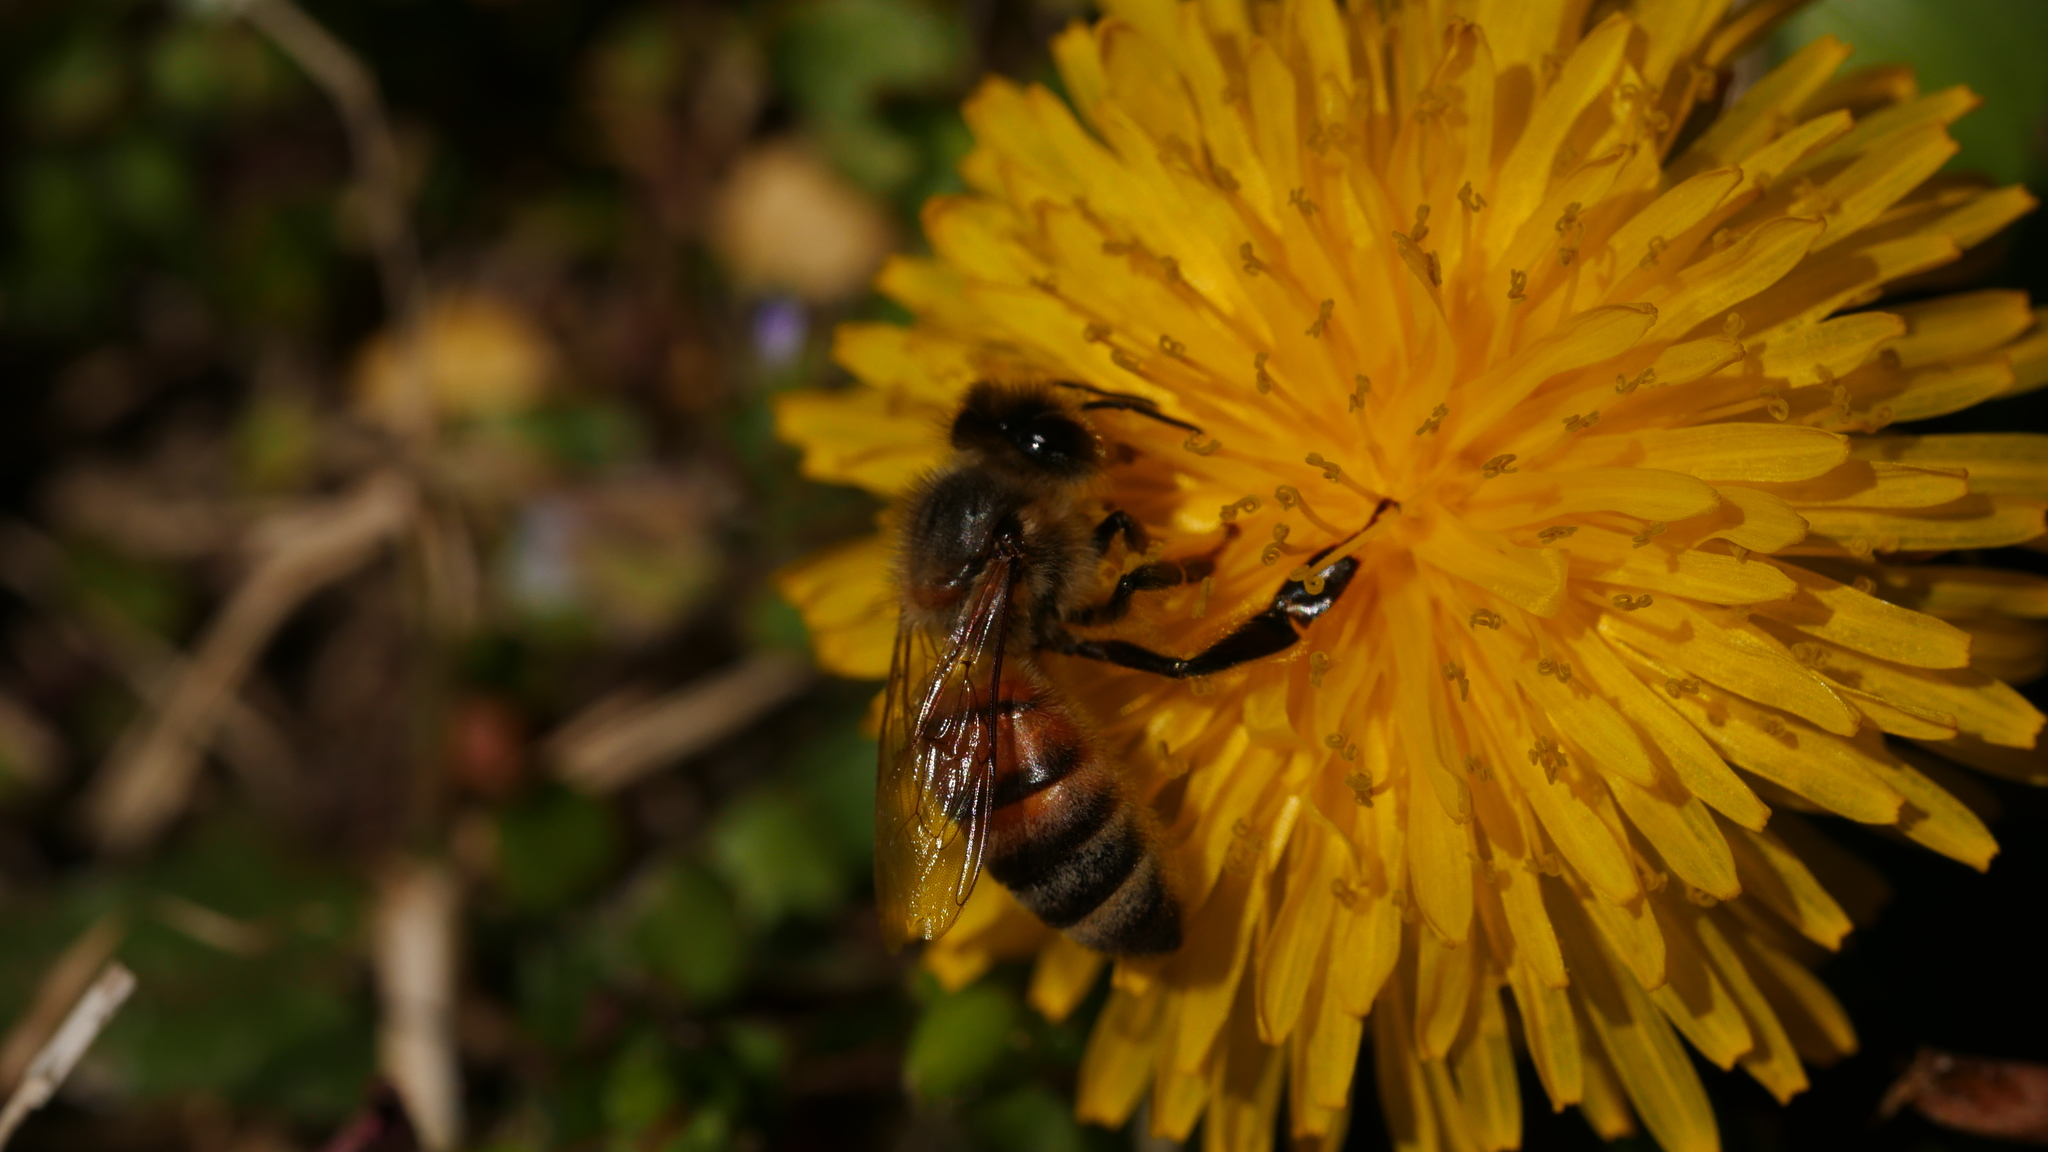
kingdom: Animalia
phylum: Arthropoda
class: Insecta
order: Hymenoptera
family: Apidae
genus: Apis
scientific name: Apis mellifera
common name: Honey bee
